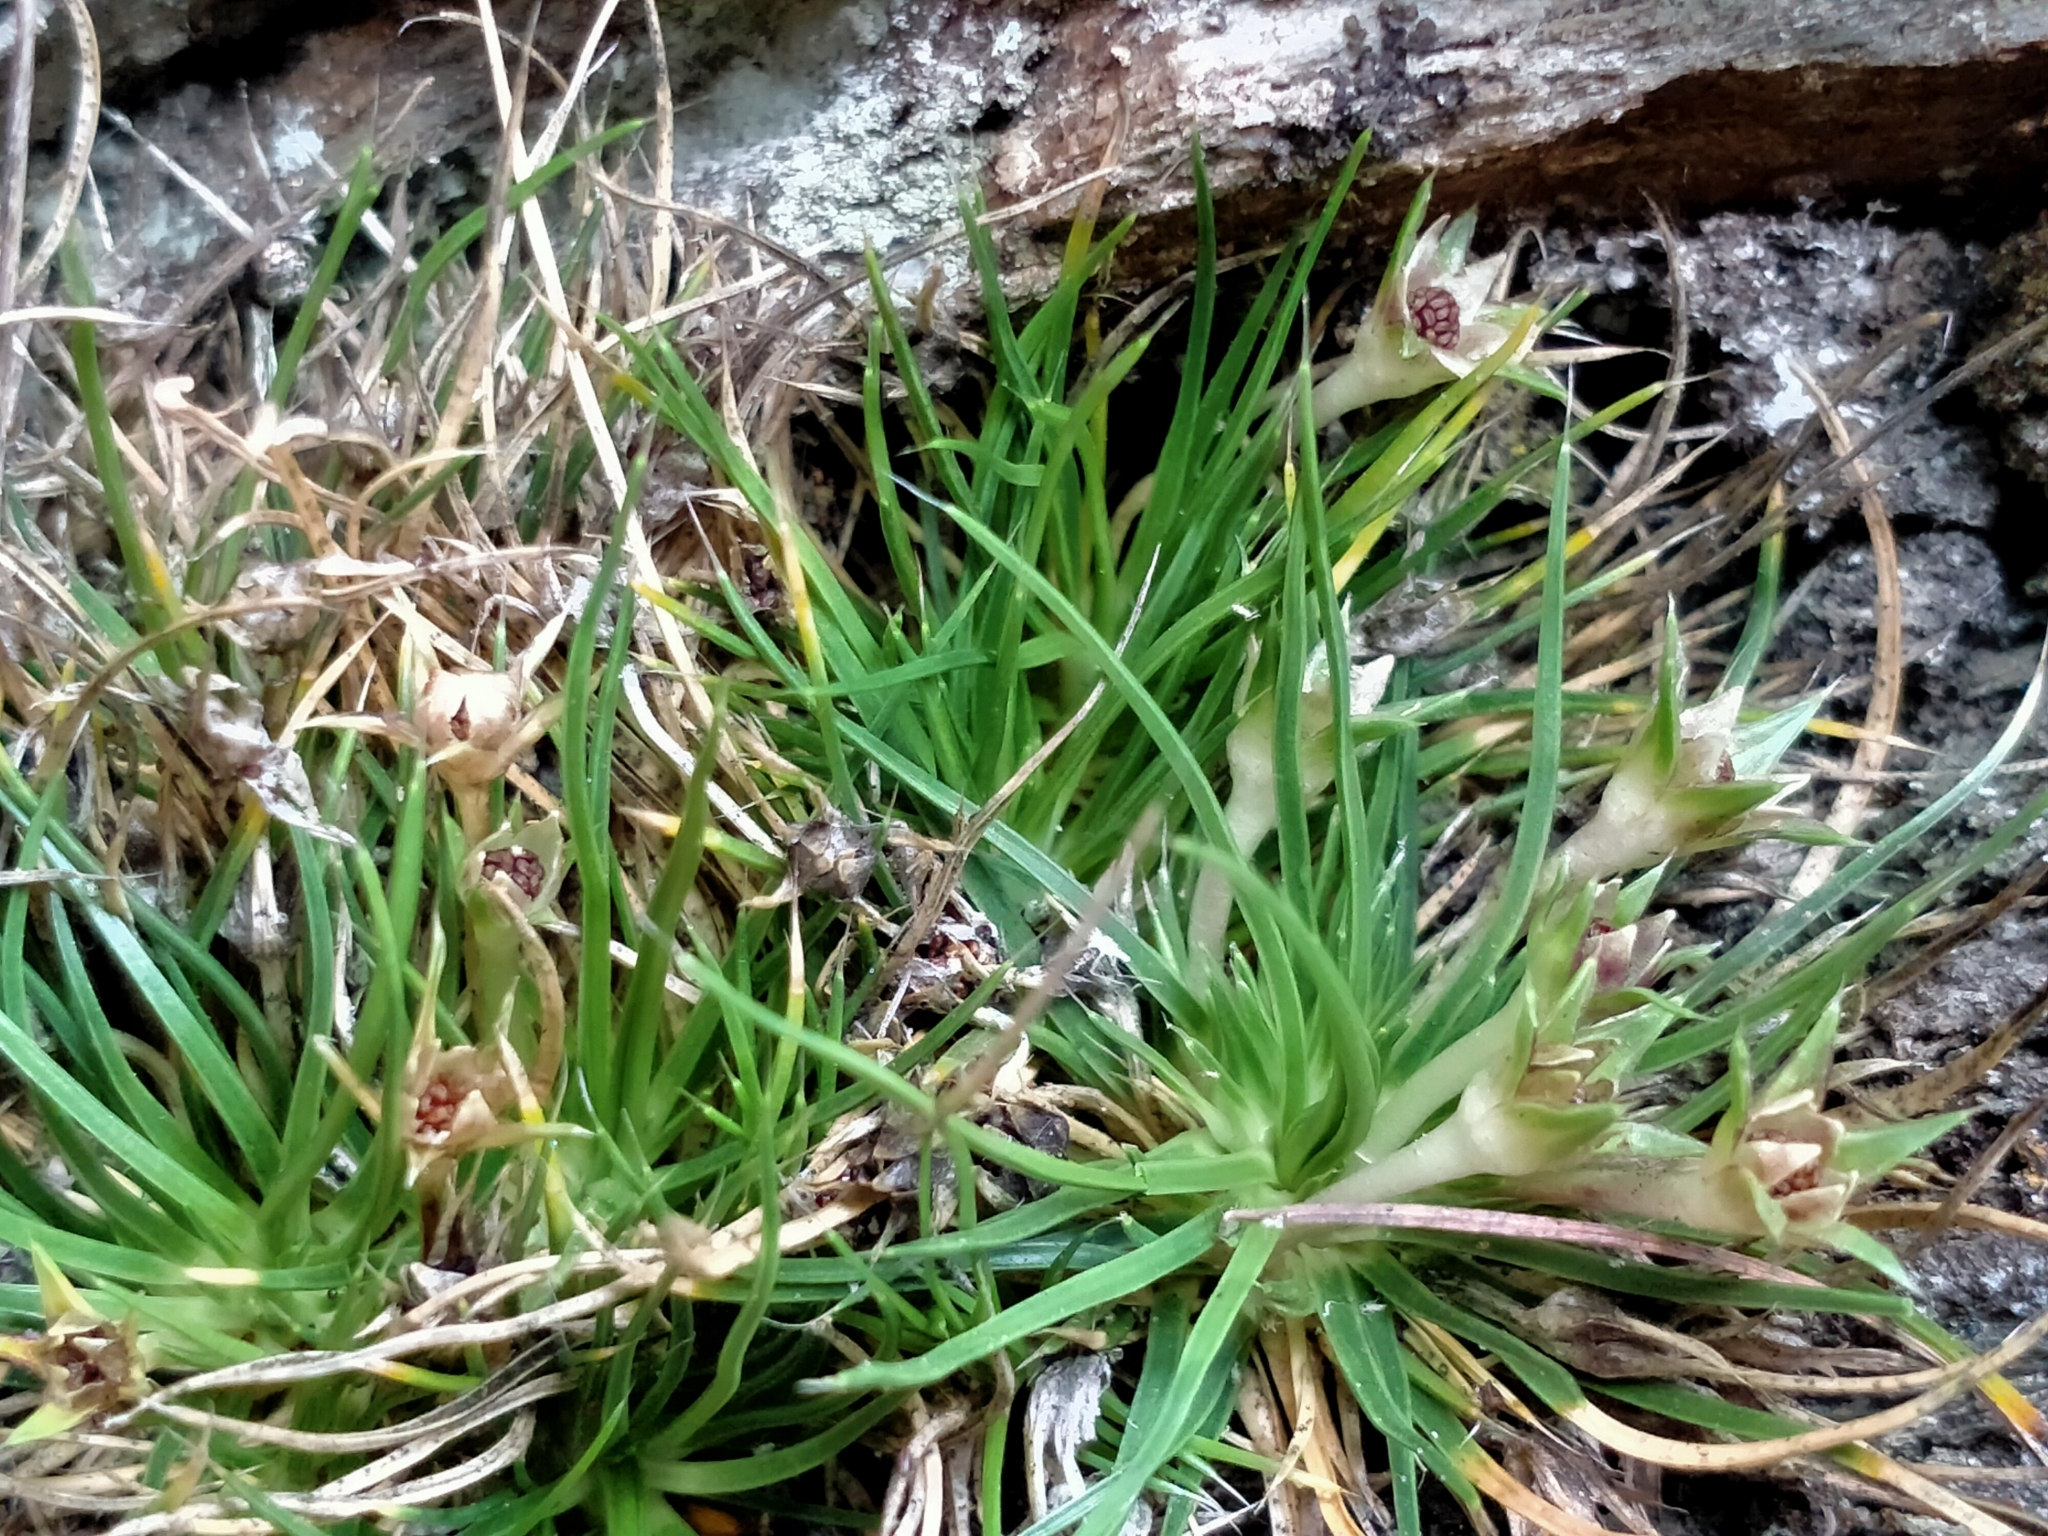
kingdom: Plantae
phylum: Tracheophyta
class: Magnoliopsida
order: Caryophyllales
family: Caryophyllaceae
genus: Colobanthus
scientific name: Colobanthus strictus
